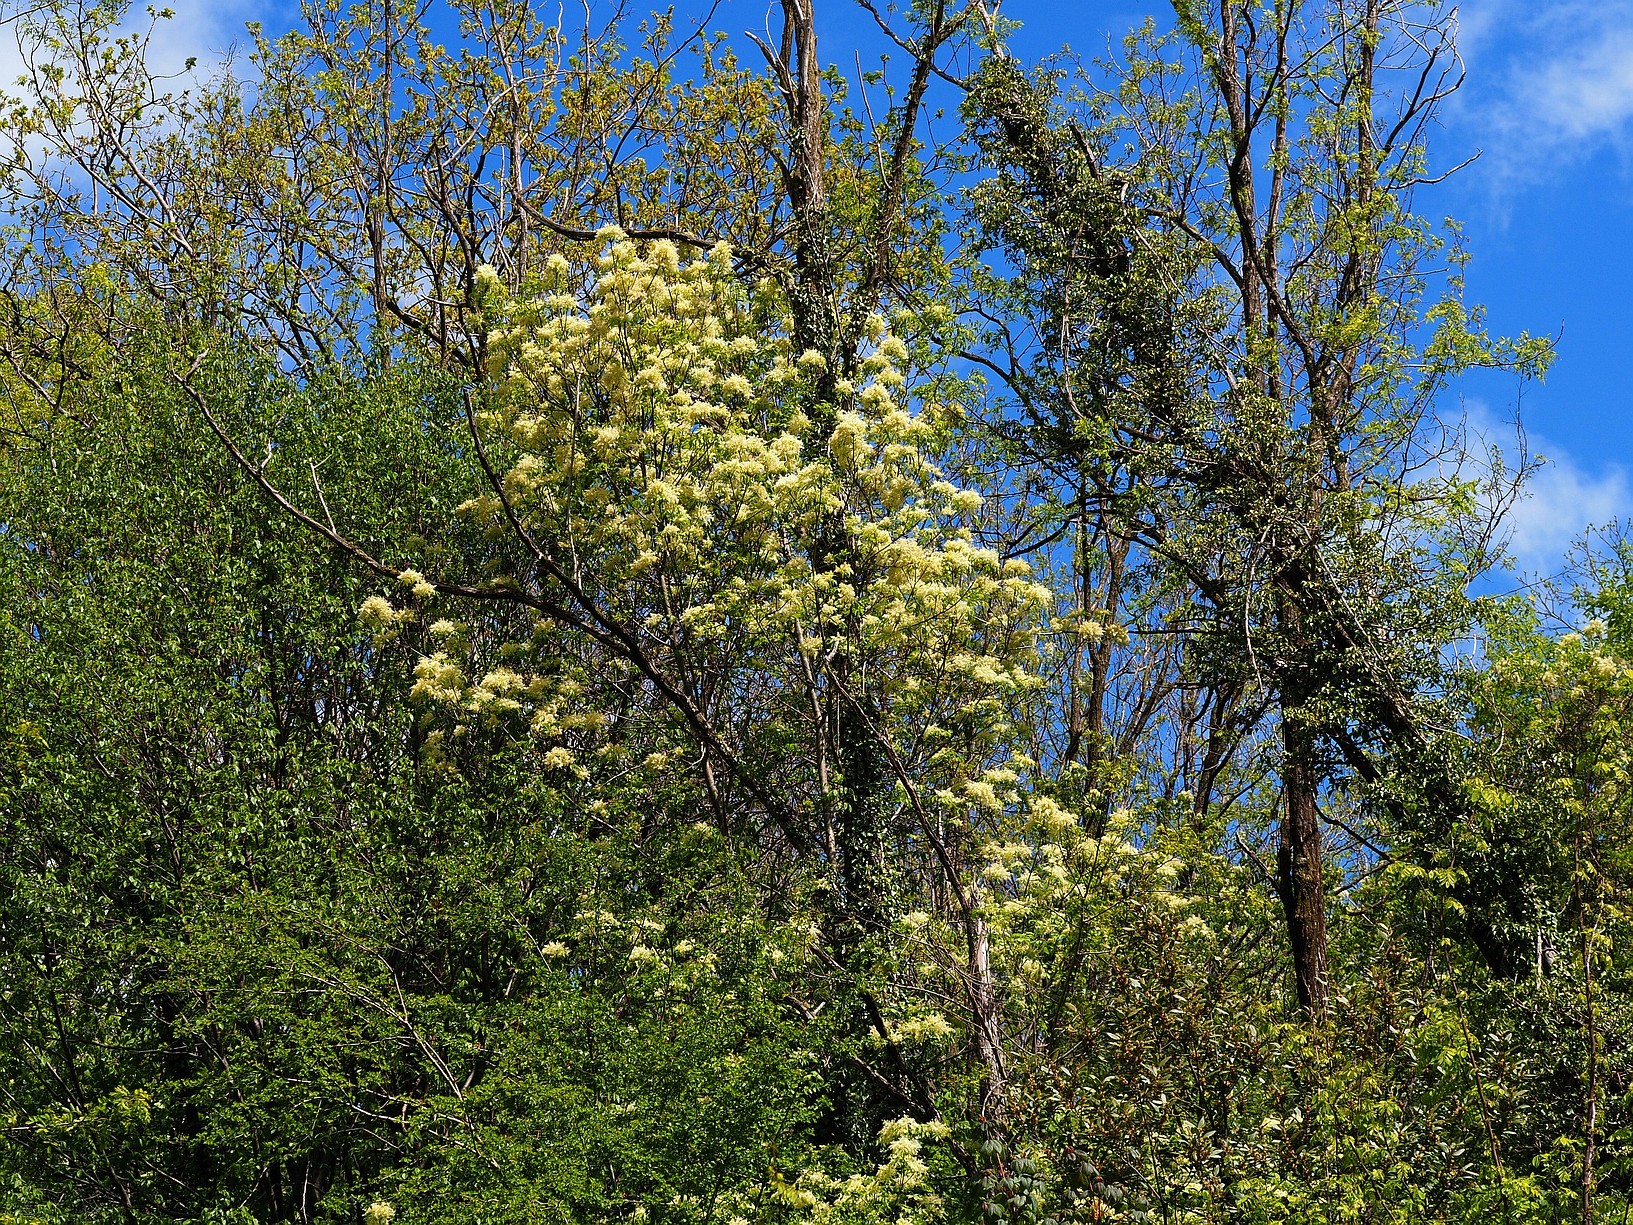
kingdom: Plantae
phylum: Tracheophyta
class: Magnoliopsida
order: Lamiales
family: Oleaceae
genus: Fraxinus
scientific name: Fraxinus ornus
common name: Manna ash
